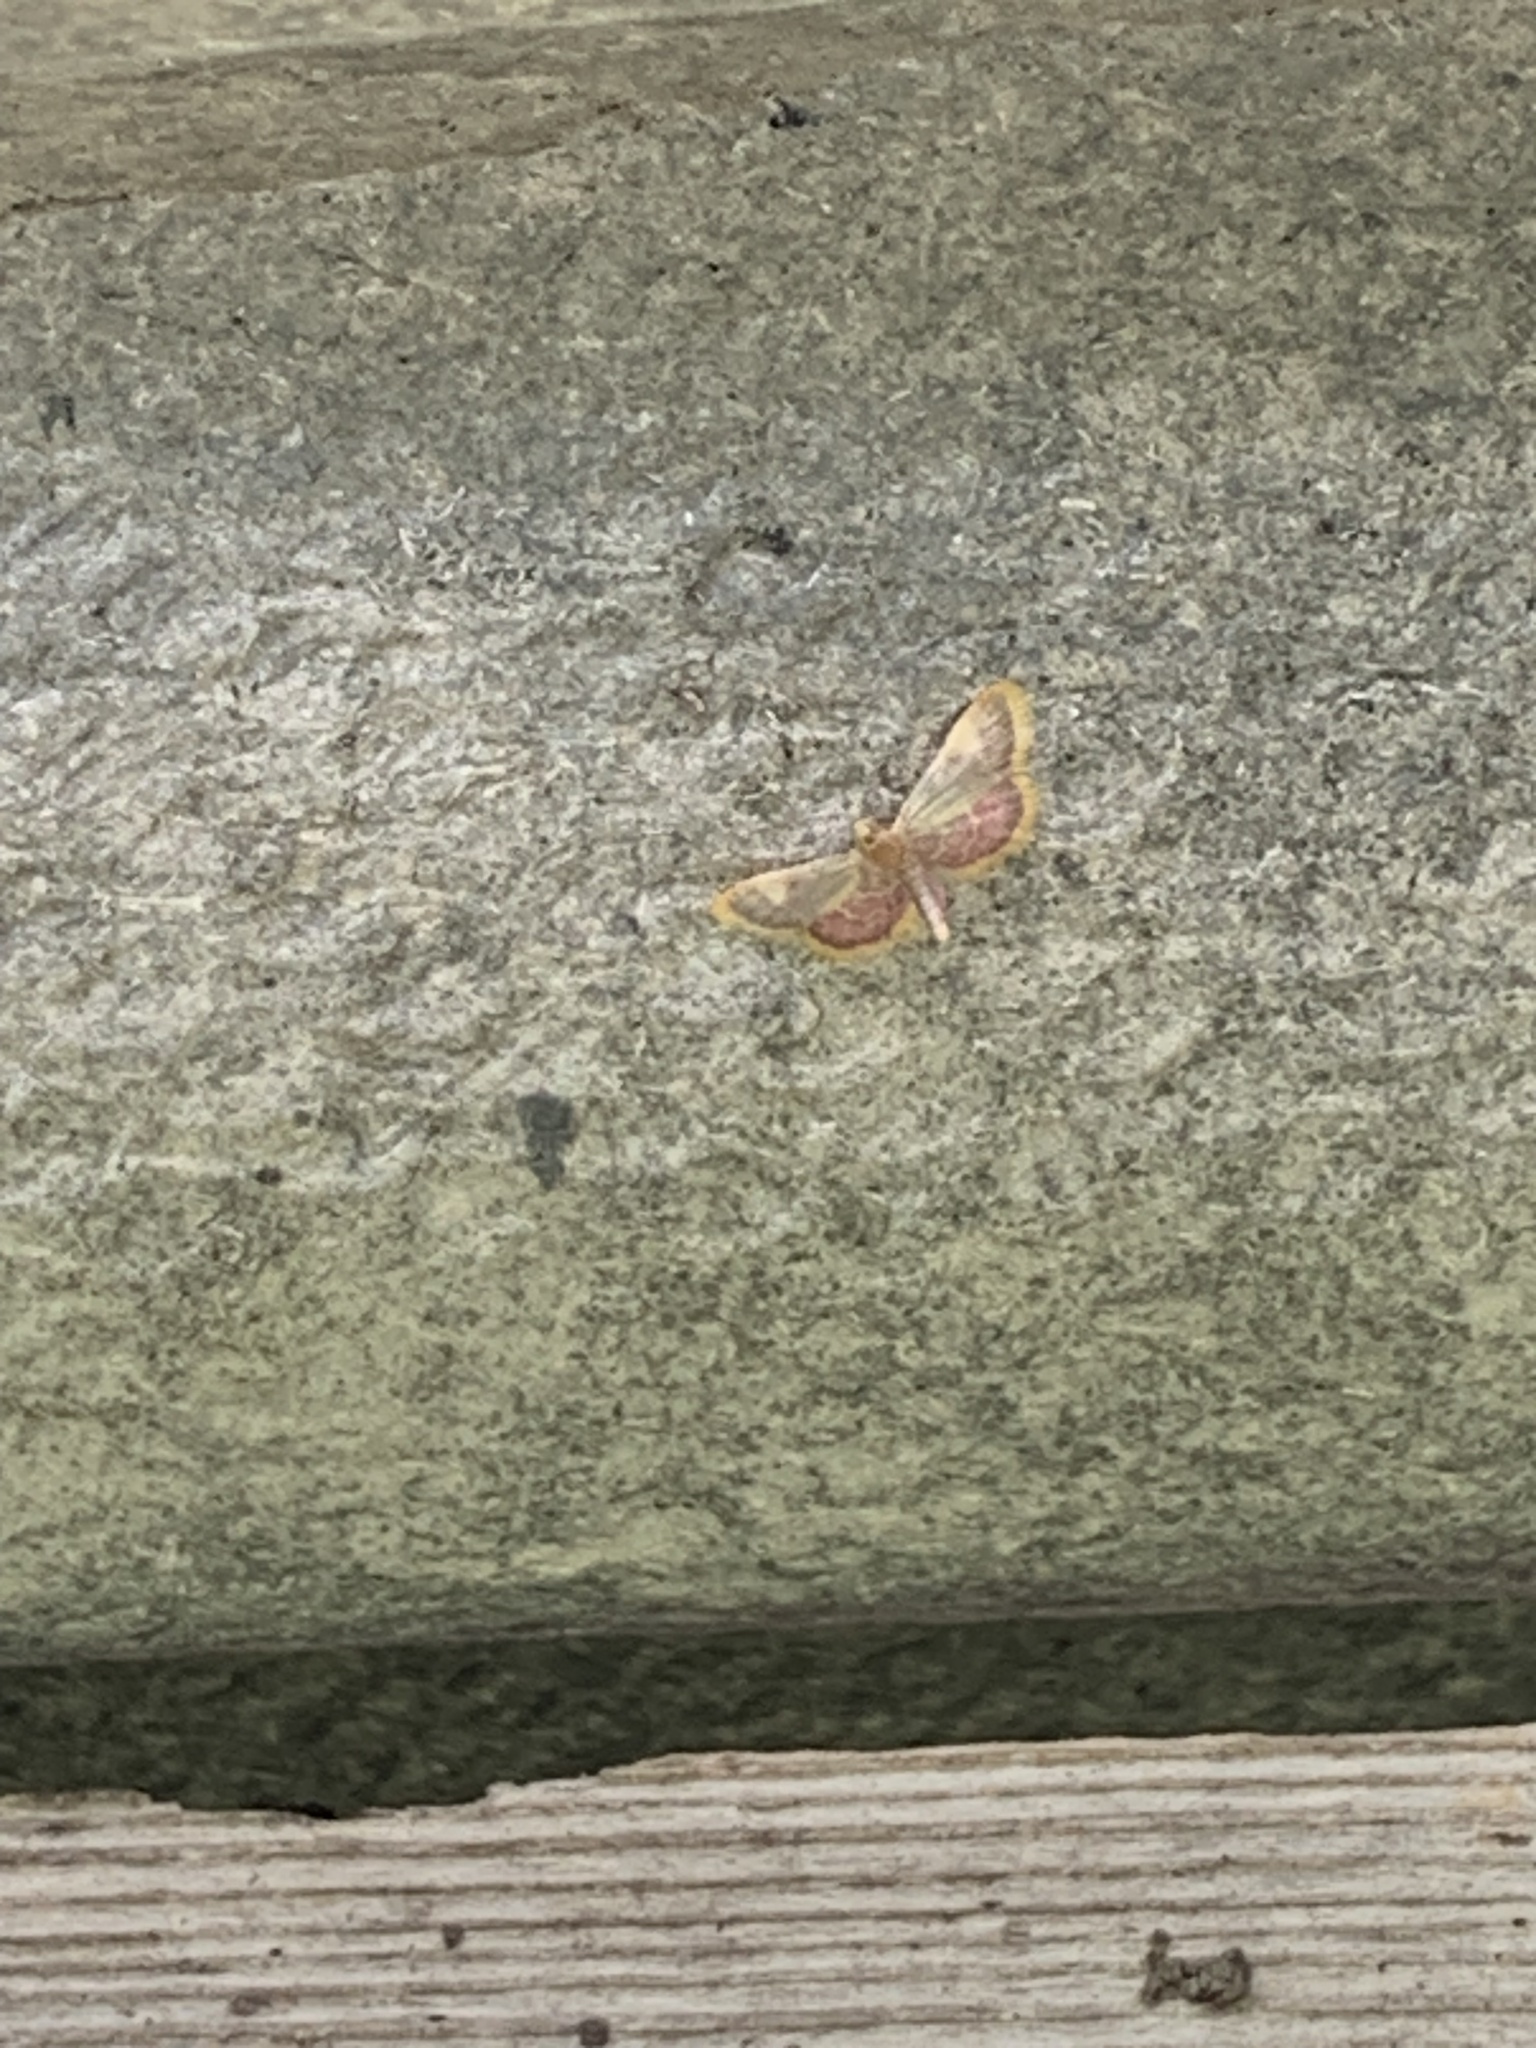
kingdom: Animalia
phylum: Arthropoda
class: Insecta
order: Lepidoptera
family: Pyralidae
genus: Hypsopygia
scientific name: Hypsopygia costalis
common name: Gold triangle
